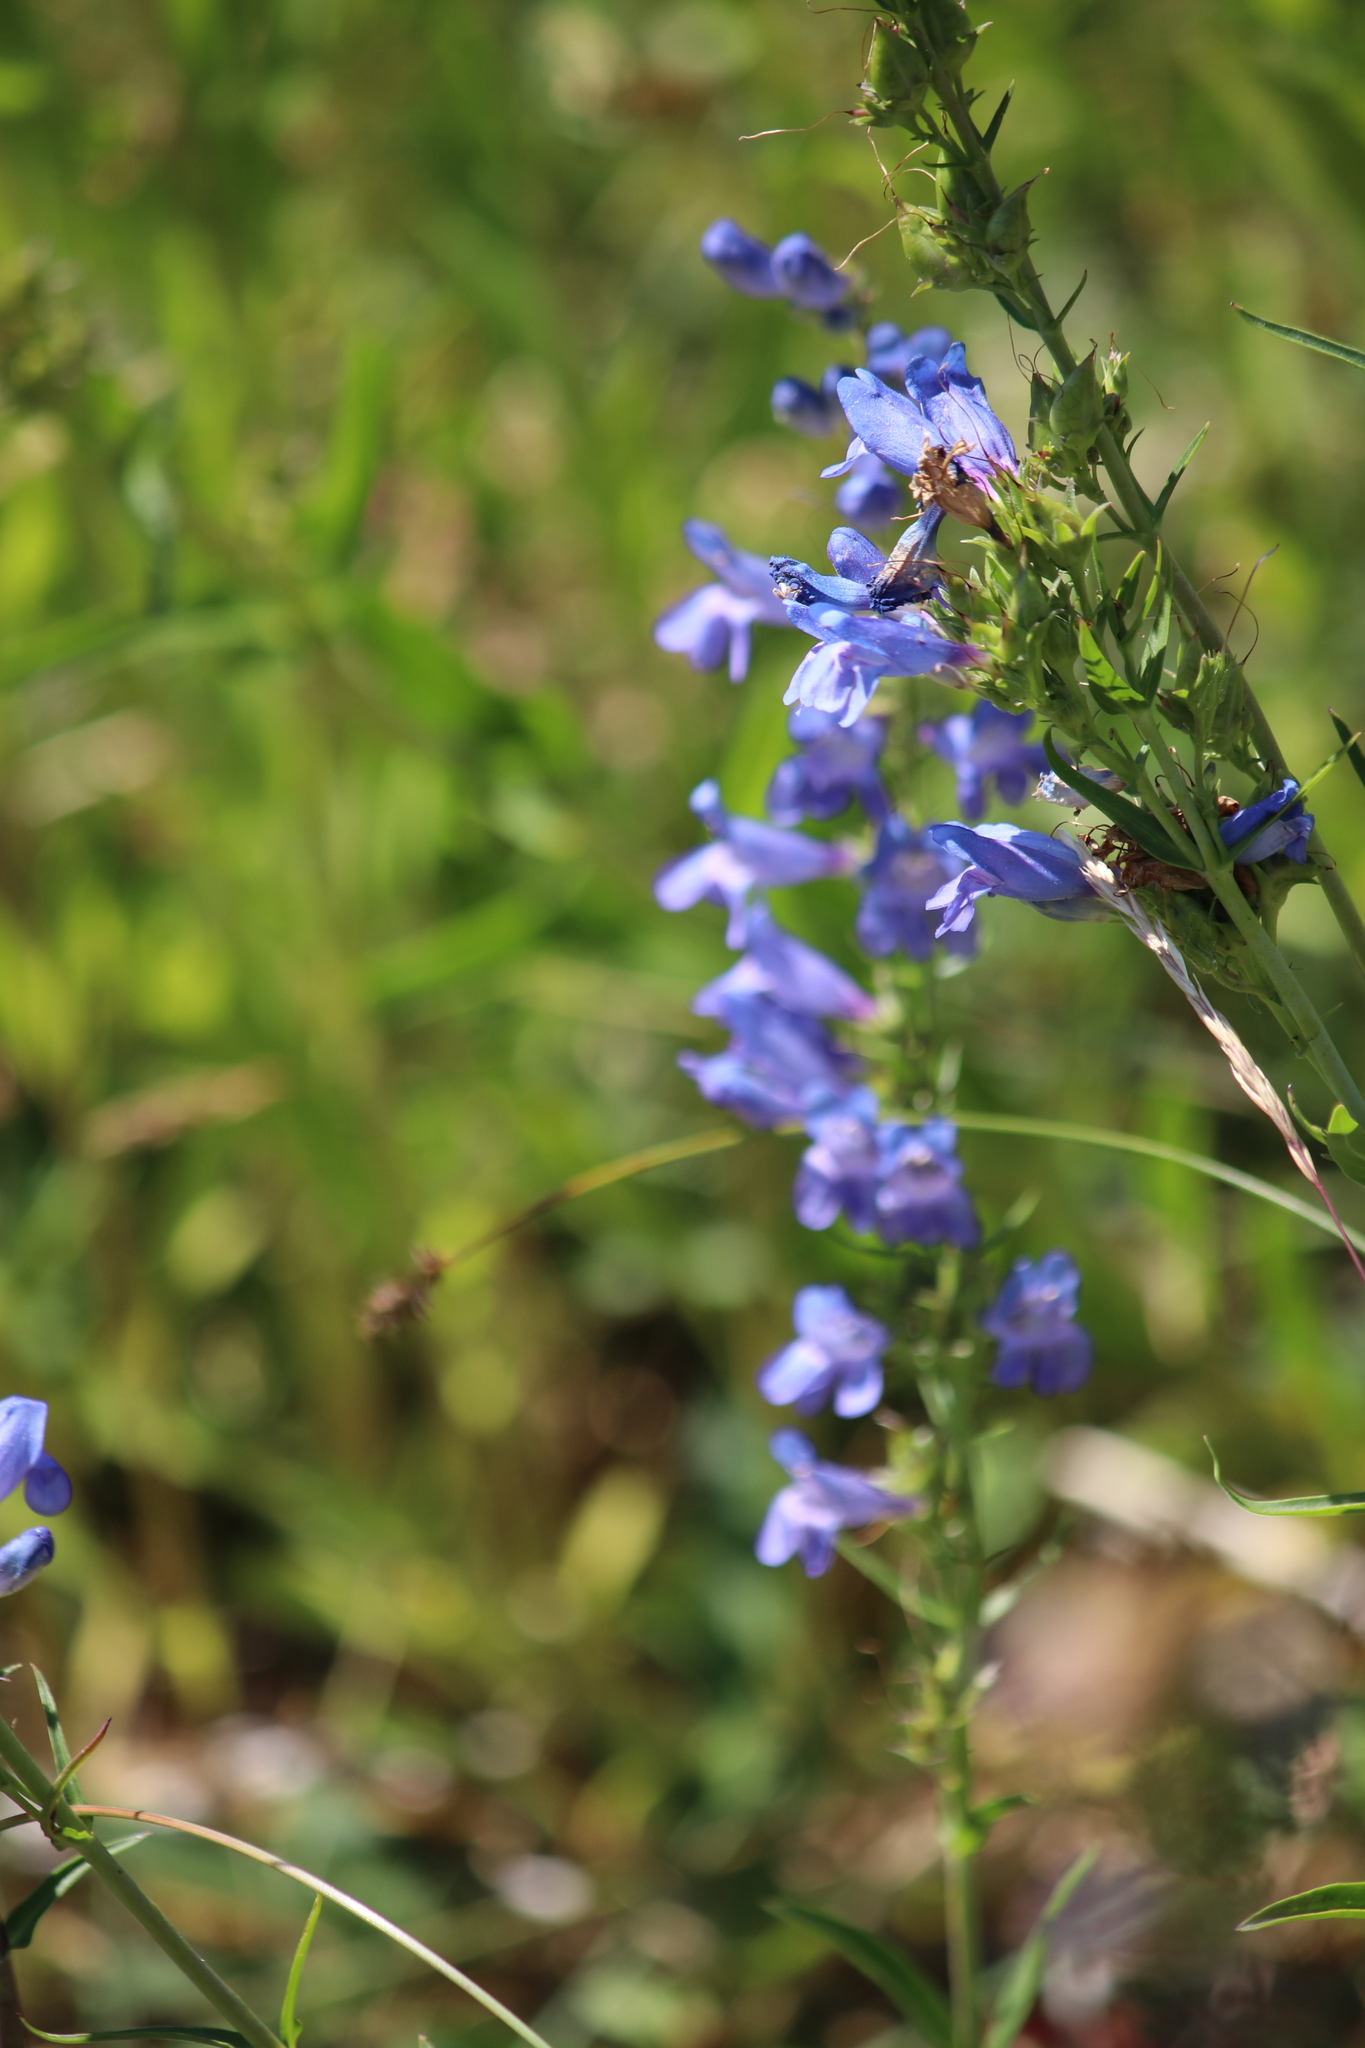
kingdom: Plantae
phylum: Tracheophyta
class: Magnoliopsida
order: Lamiales
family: Plantaginaceae
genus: Penstemon
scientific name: Penstemon cyananthus
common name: Wasatch penstemon
